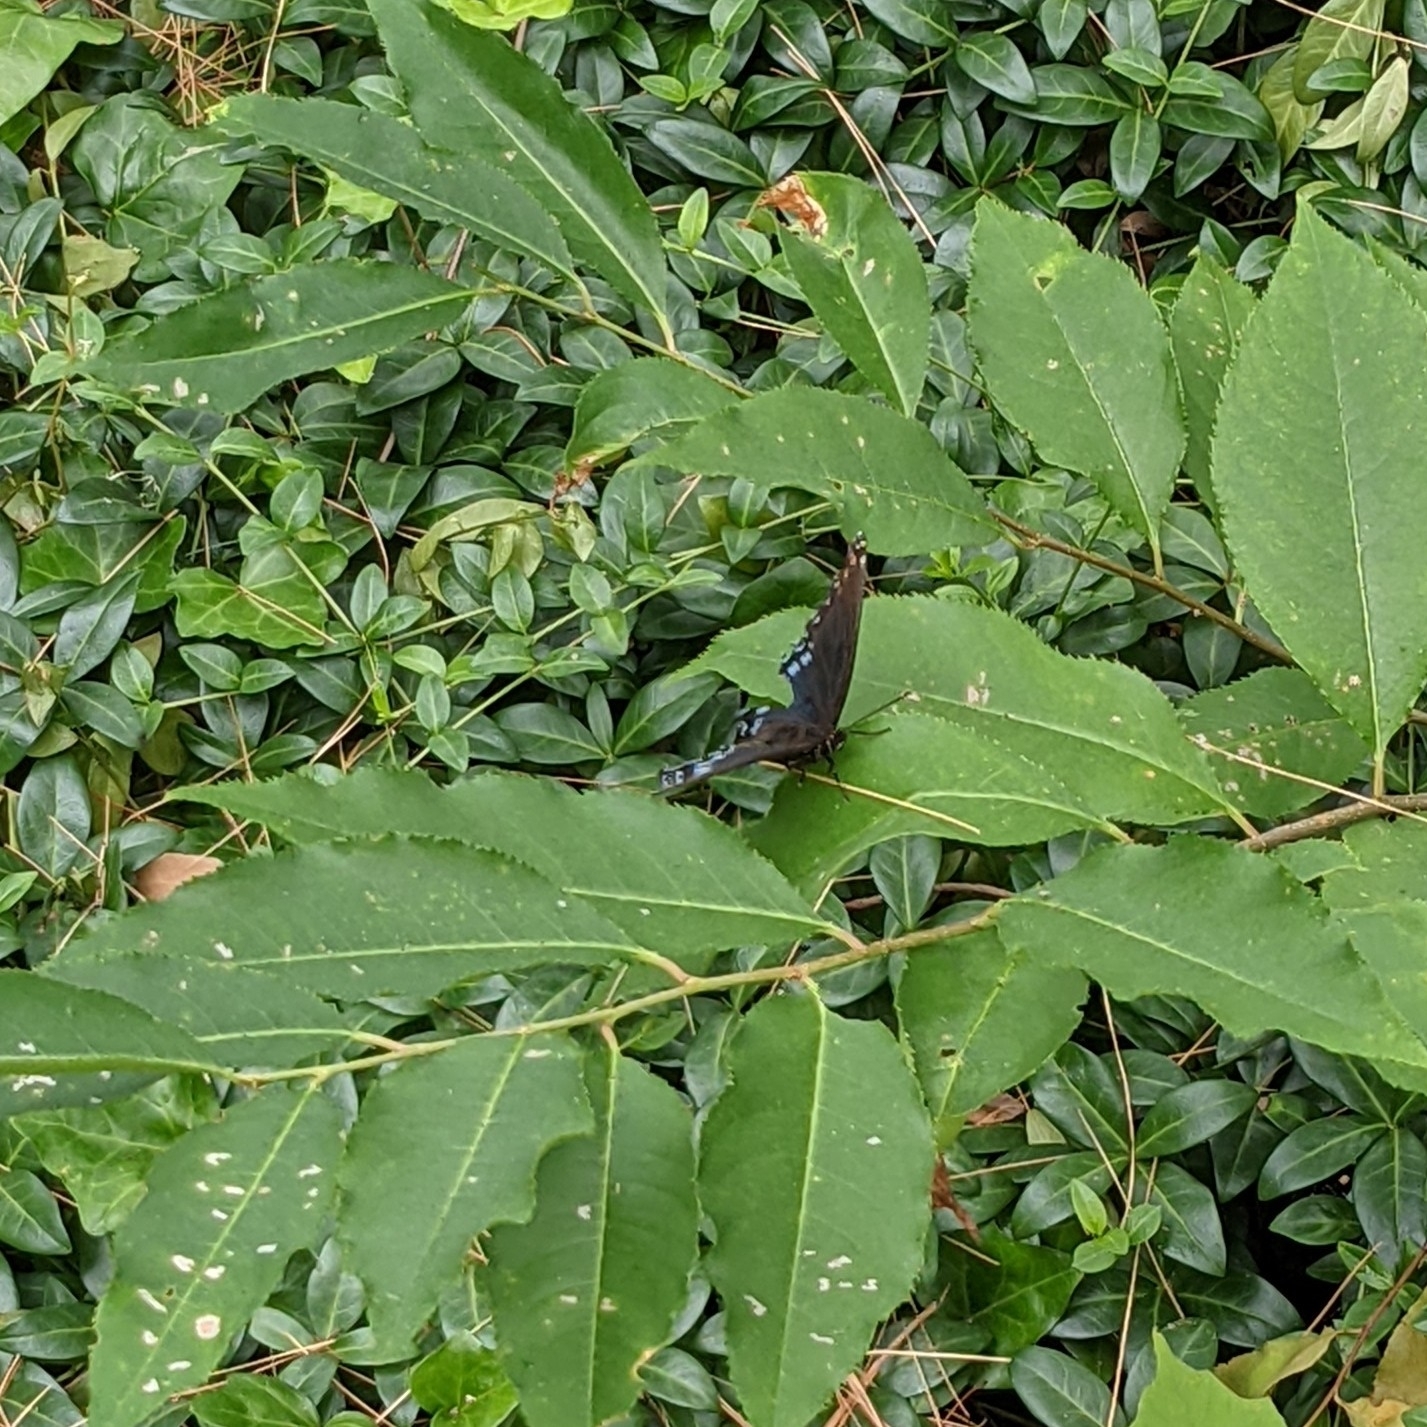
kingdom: Animalia
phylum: Arthropoda
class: Insecta
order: Lepidoptera
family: Nymphalidae
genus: Limenitis
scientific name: Limenitis arthemis
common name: Red-spotted admiral
